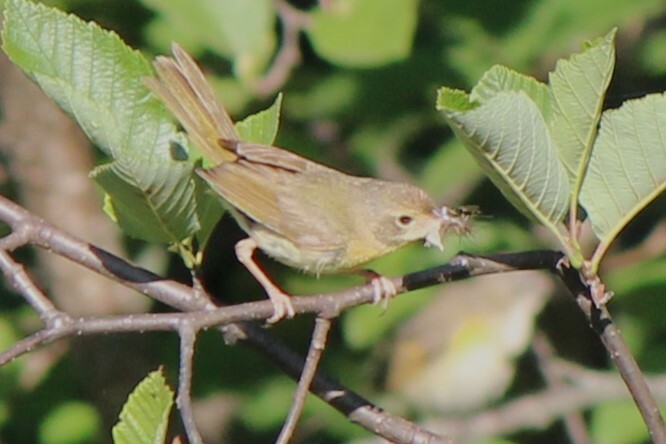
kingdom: Animalia
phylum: Chordata
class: Aves
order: Passeriformes
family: Parulidae
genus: Geothlypis
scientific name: Geothlypis trichas
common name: Common yellowthroat
